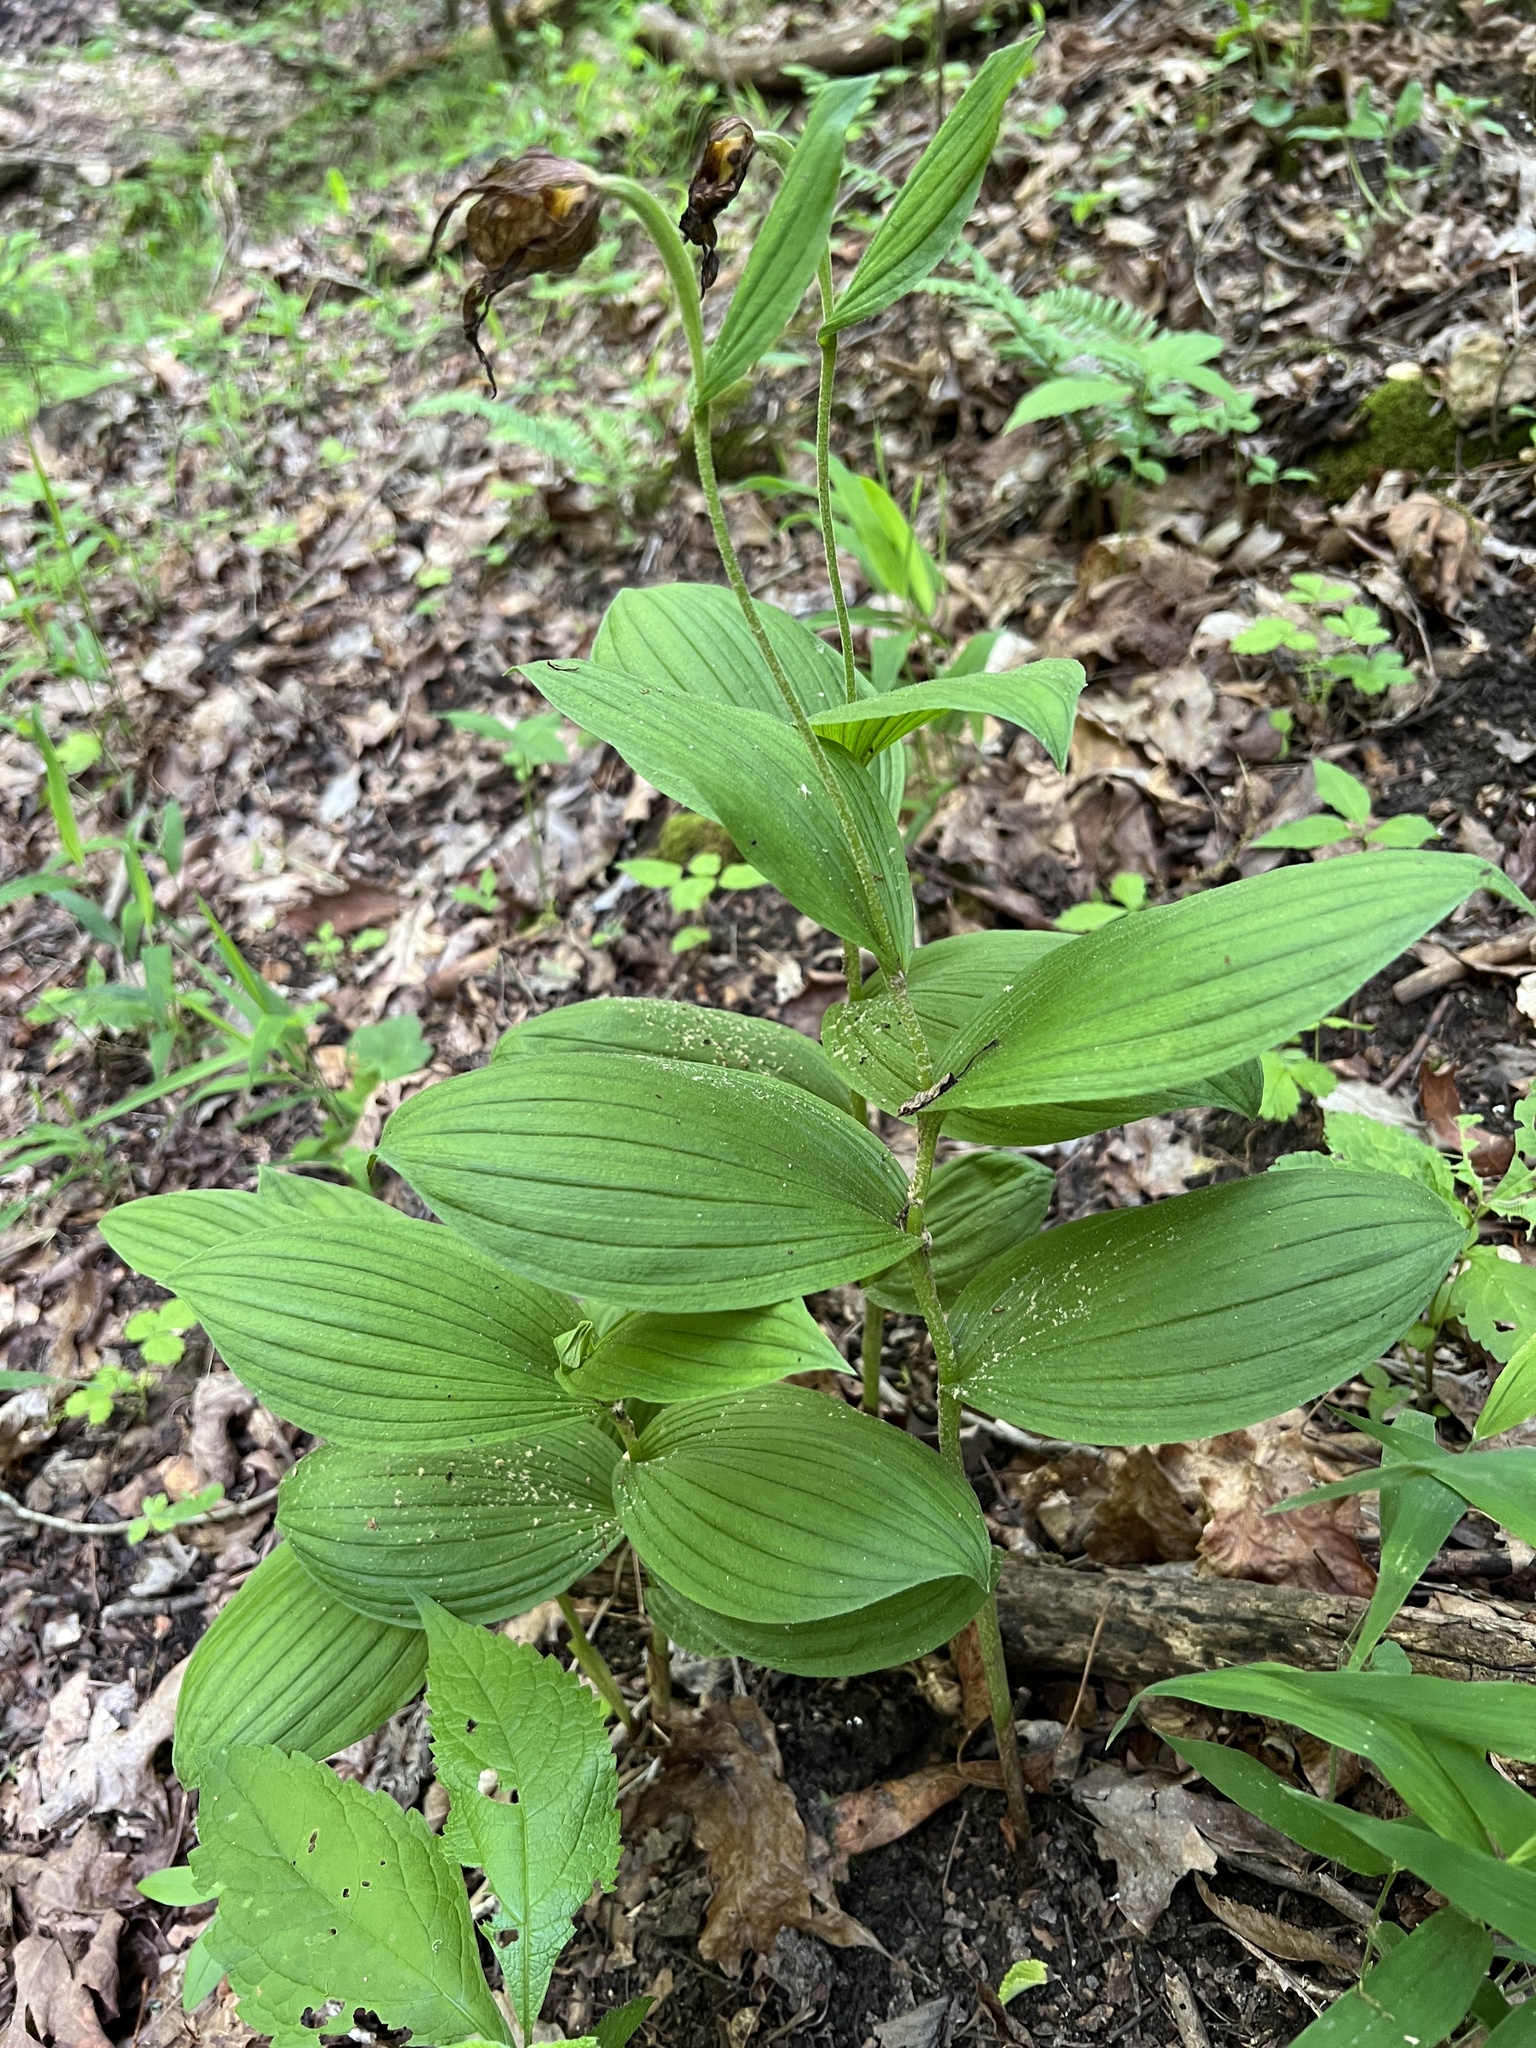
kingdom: Plantae
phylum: Tracheophyta
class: Liliopsida
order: Asparagales
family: Orchidaceae
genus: Cypripedium
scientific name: Cypripedium parviflorum
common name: American yellow lady's-slipper
